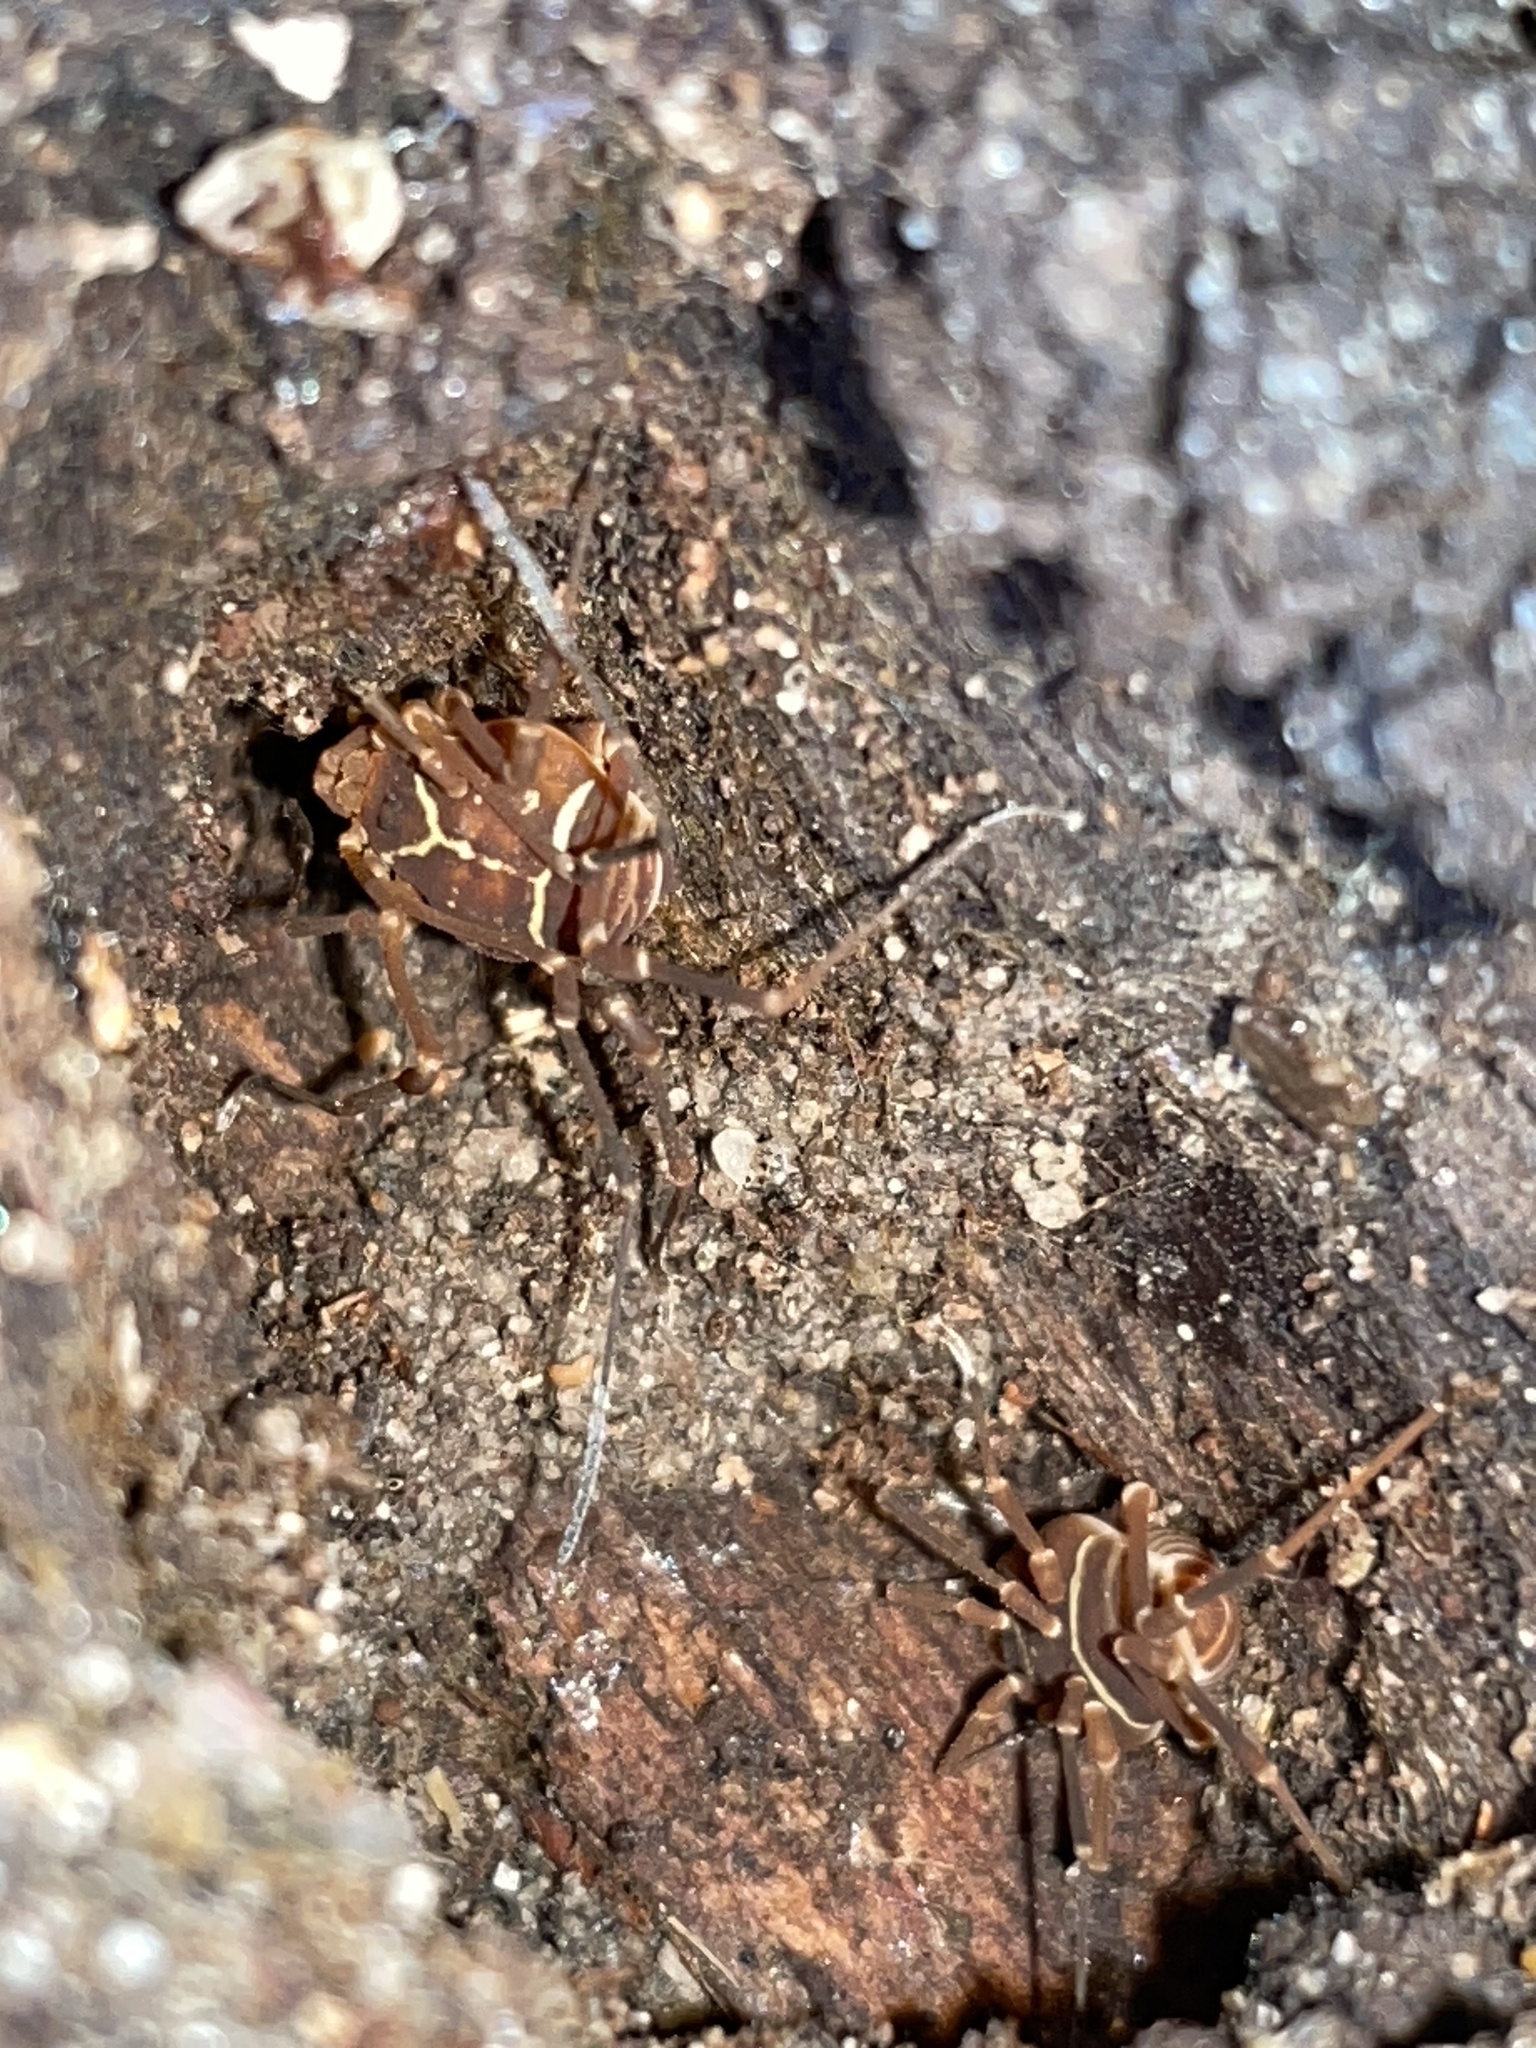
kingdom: Animalia
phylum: Arthropoda
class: Arachnida
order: Opiliones
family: Cosmetidae
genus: Libitioides
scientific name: Libitioides sayi
